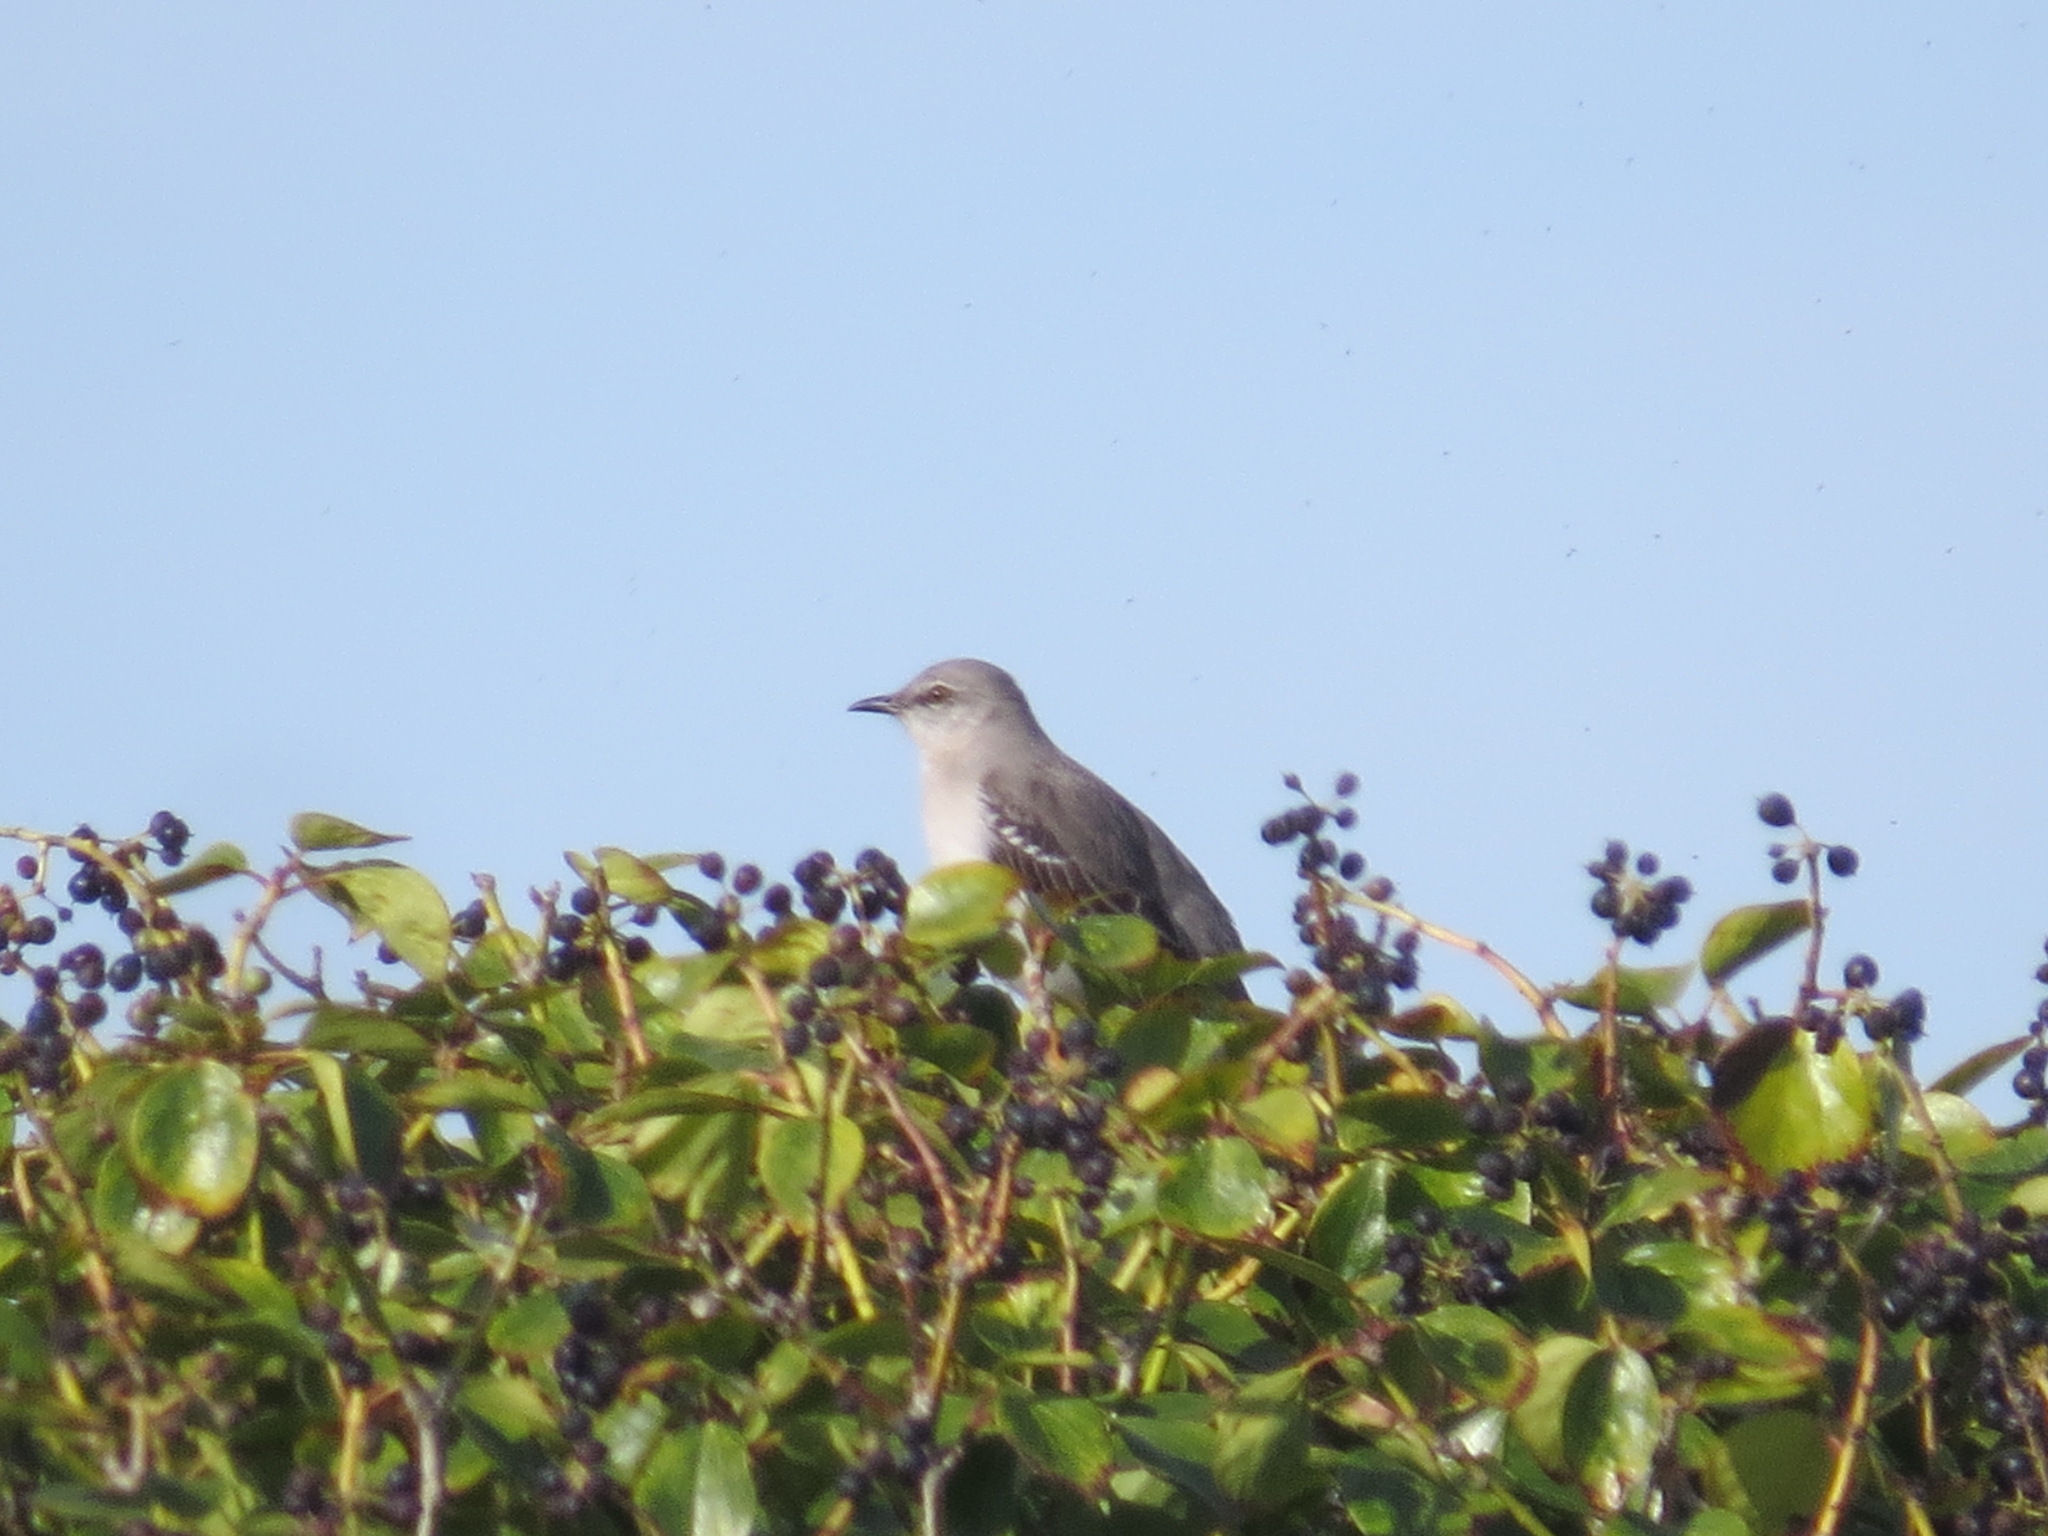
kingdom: Animalia
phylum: Chordata
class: Aves
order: Passeriformes
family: Mimidae
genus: Mimus
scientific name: Mimus polyglottos
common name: Northern mockingbird
